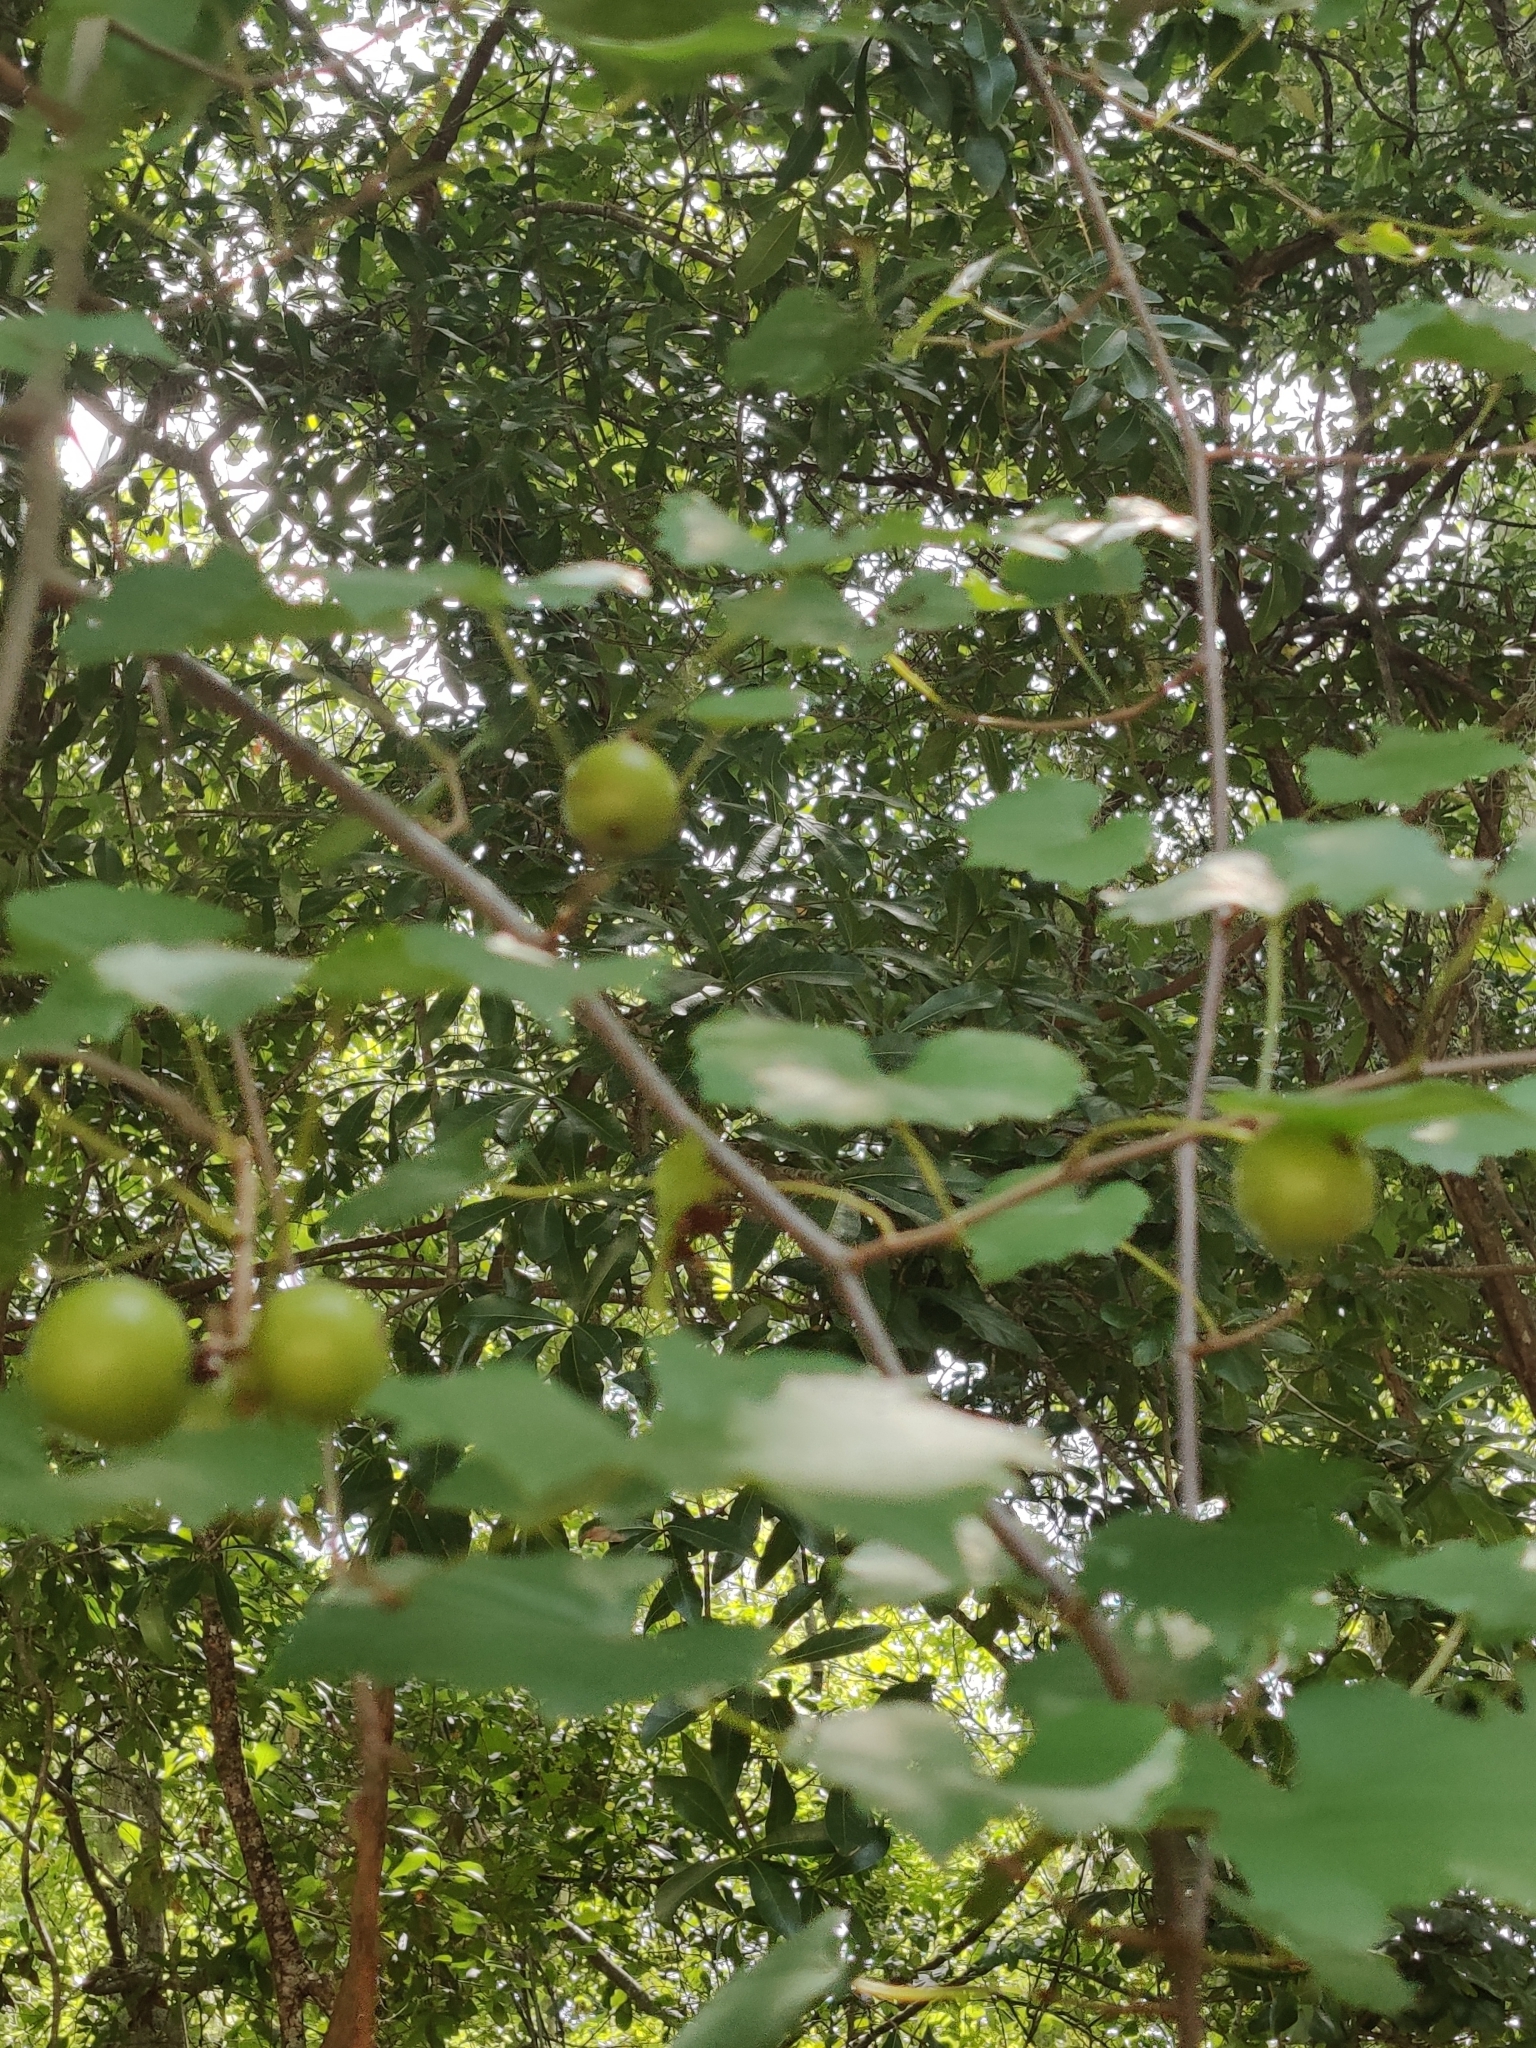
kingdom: Plantae
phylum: Tracheophyta
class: Magnoliopsida
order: Vitales
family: Vitaceae
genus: Vitis
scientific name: Vitis rotundifolia
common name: Muscadine grape
